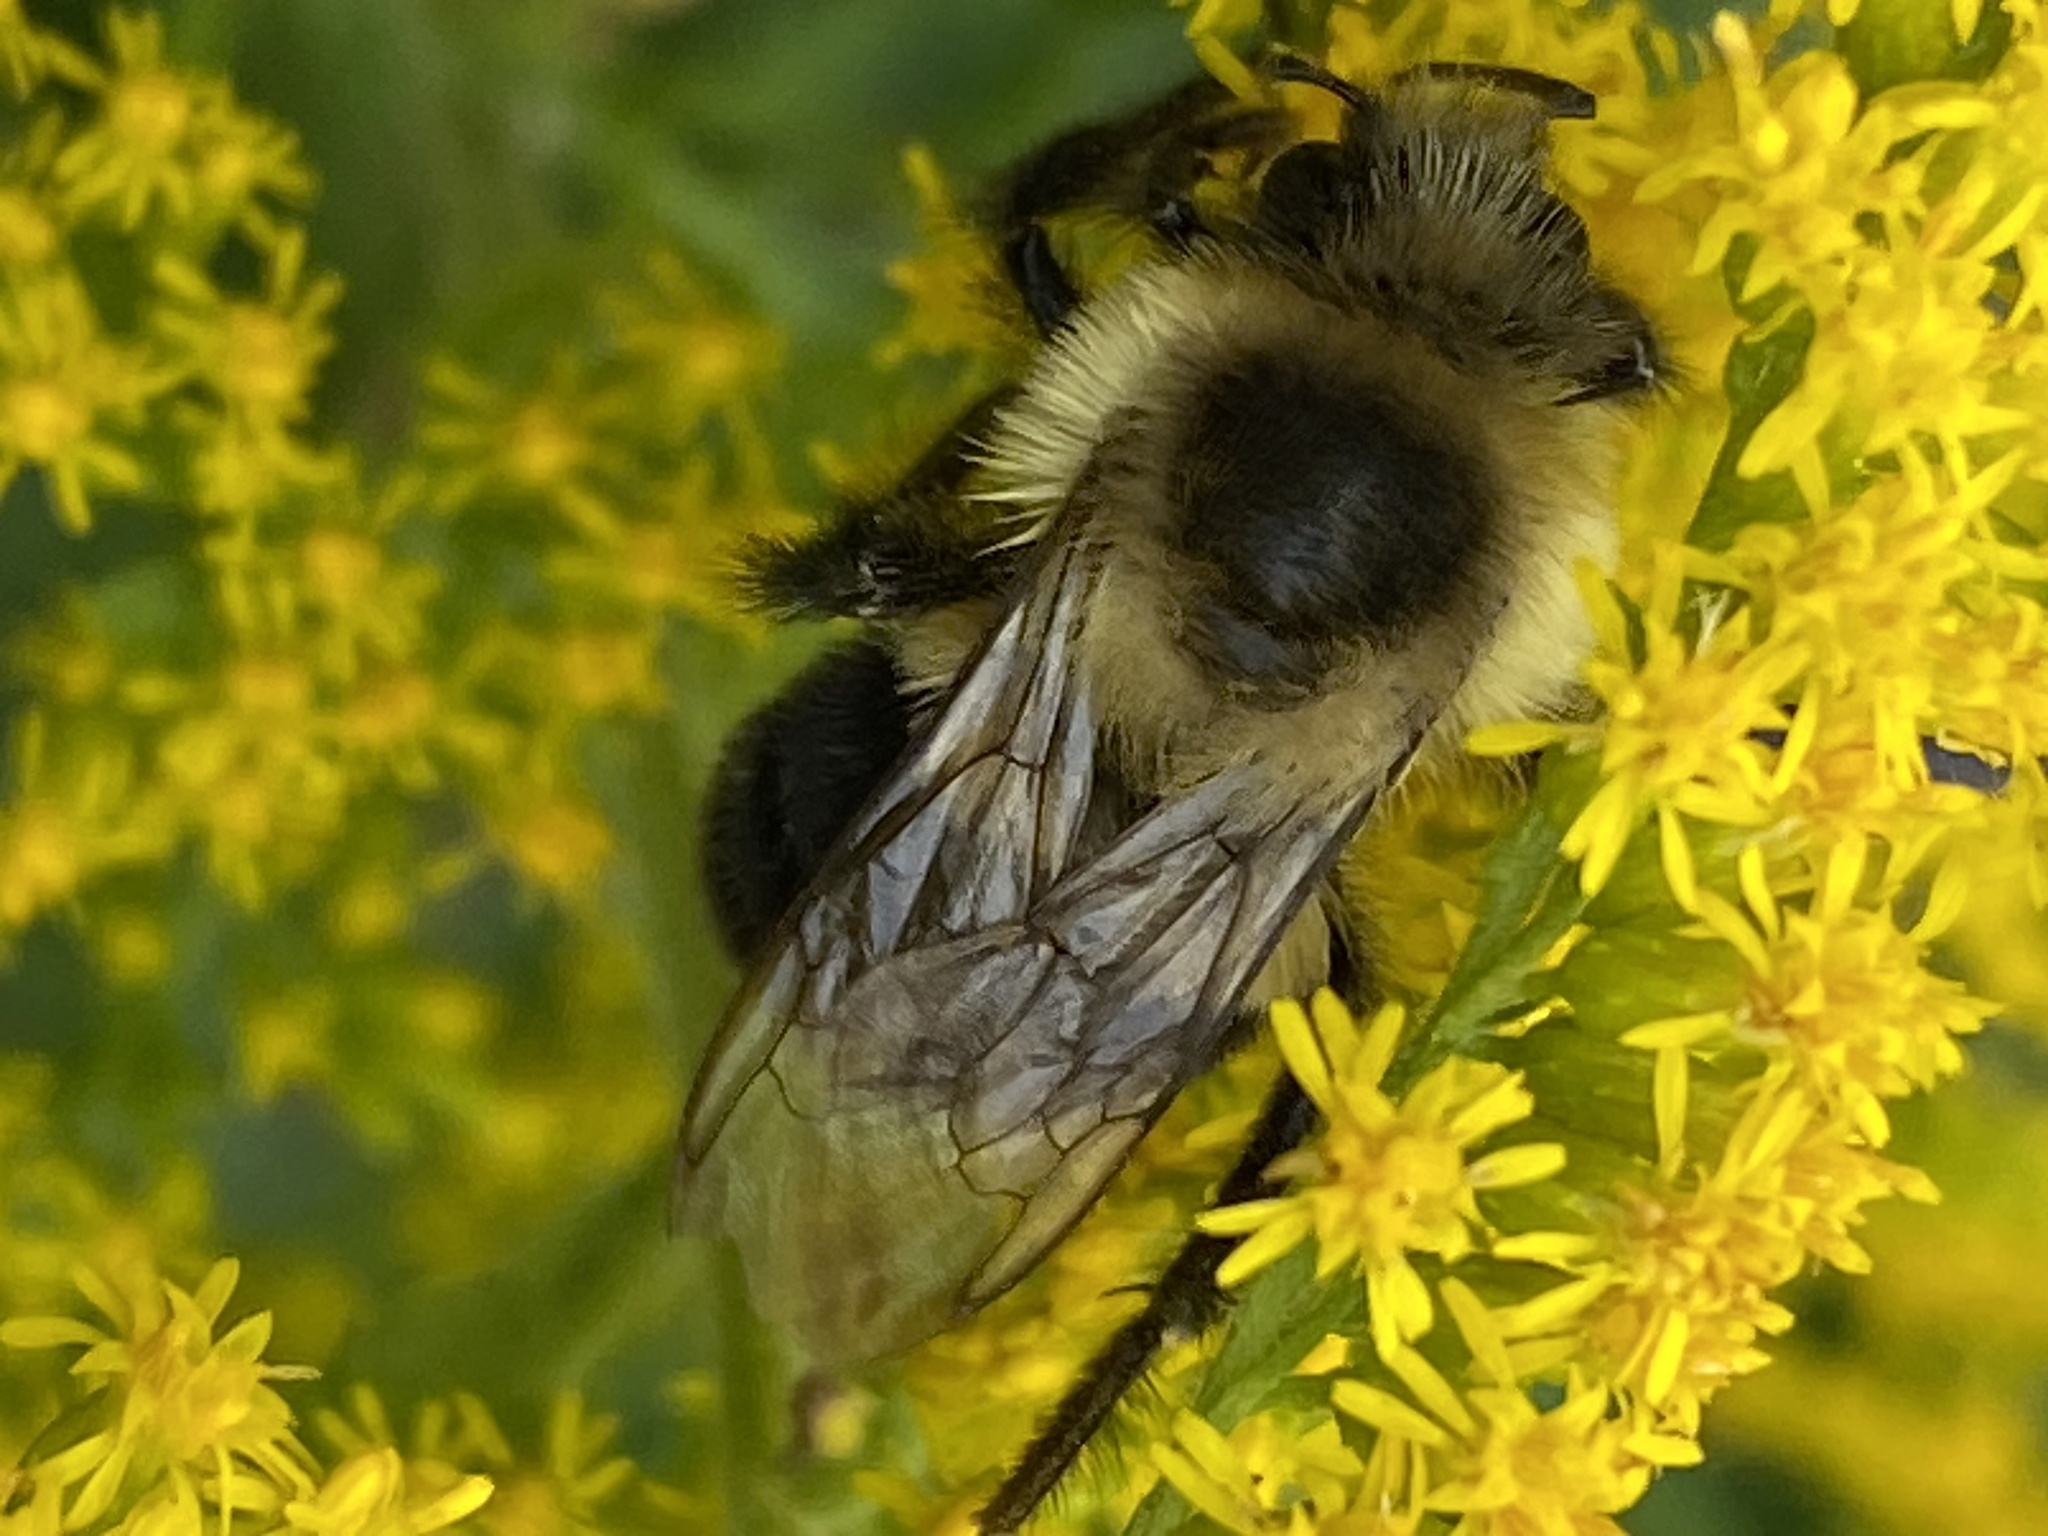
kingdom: Animalia
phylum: Arthropoda
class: Insecta
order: Hymenoptera
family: Apidae
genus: Bombus
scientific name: Bombus impatiens
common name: Common eastern bumble bee
